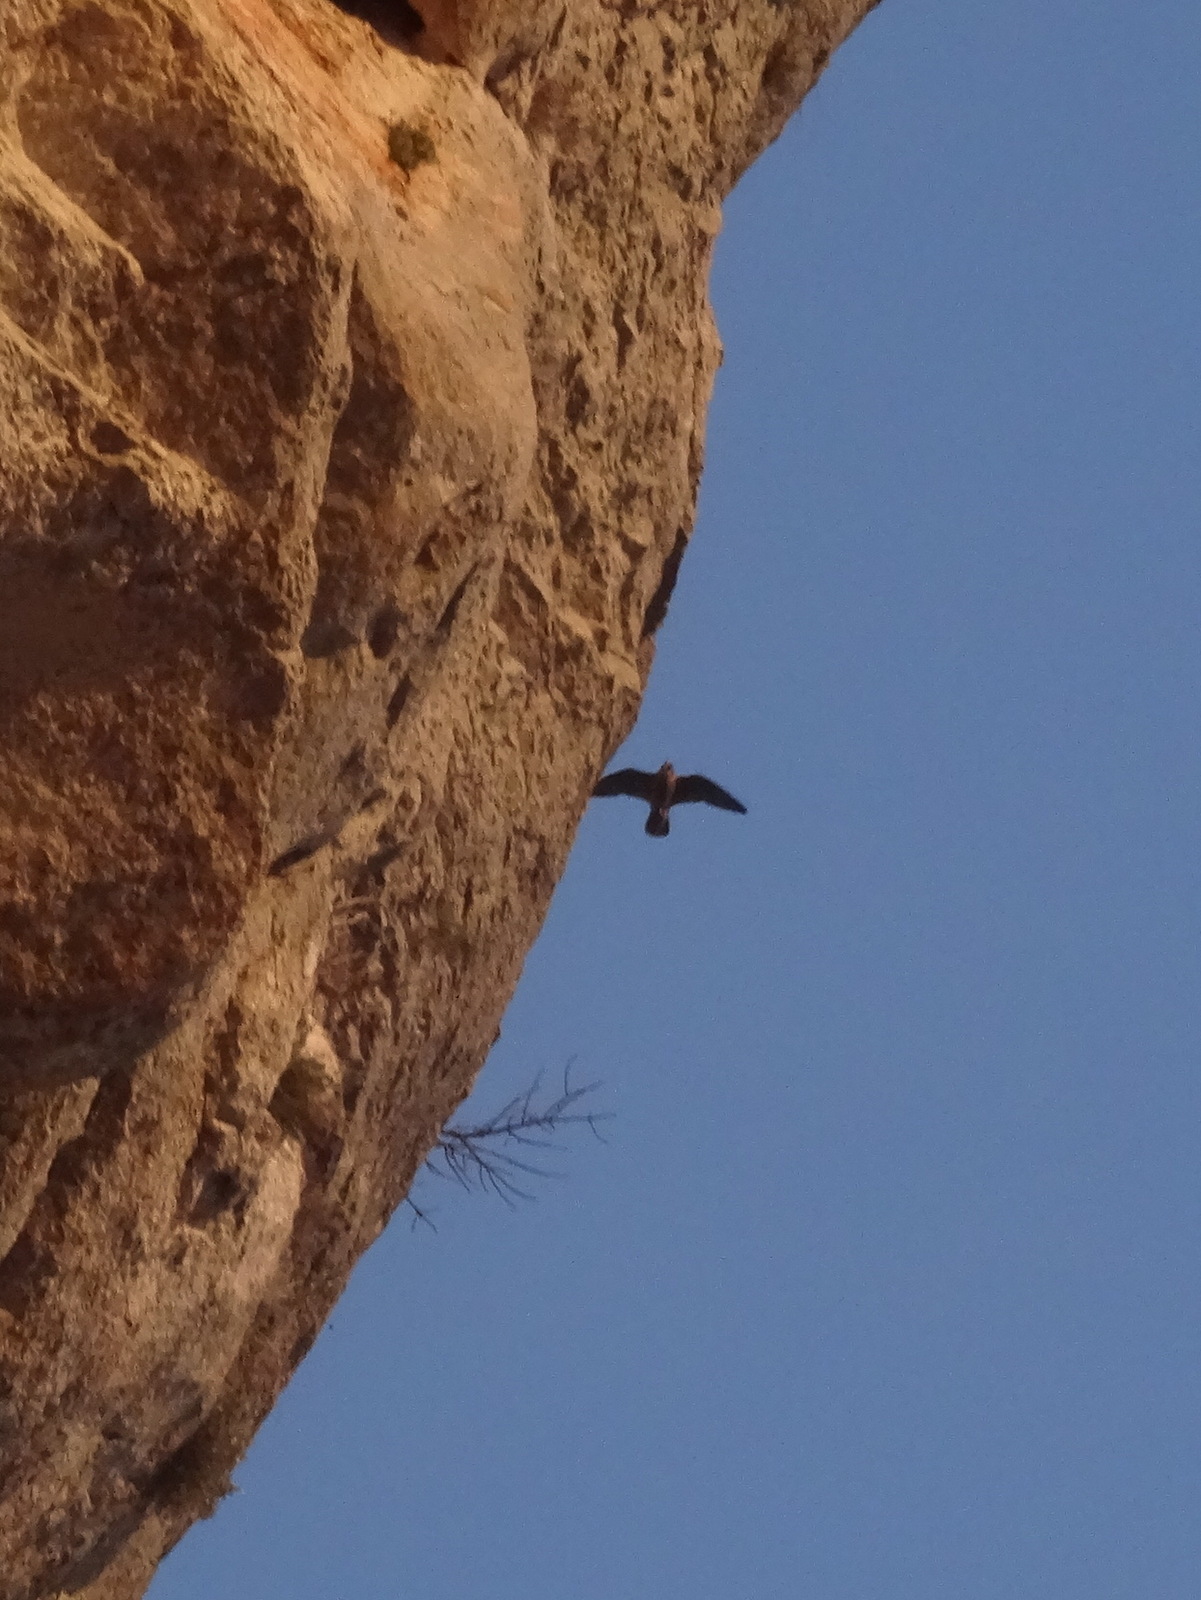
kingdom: Animalia
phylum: Chordata
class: Aves
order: Falconiformes
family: Falconidae
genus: Falco
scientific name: Falco peregrinus
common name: Peregrine falcon
